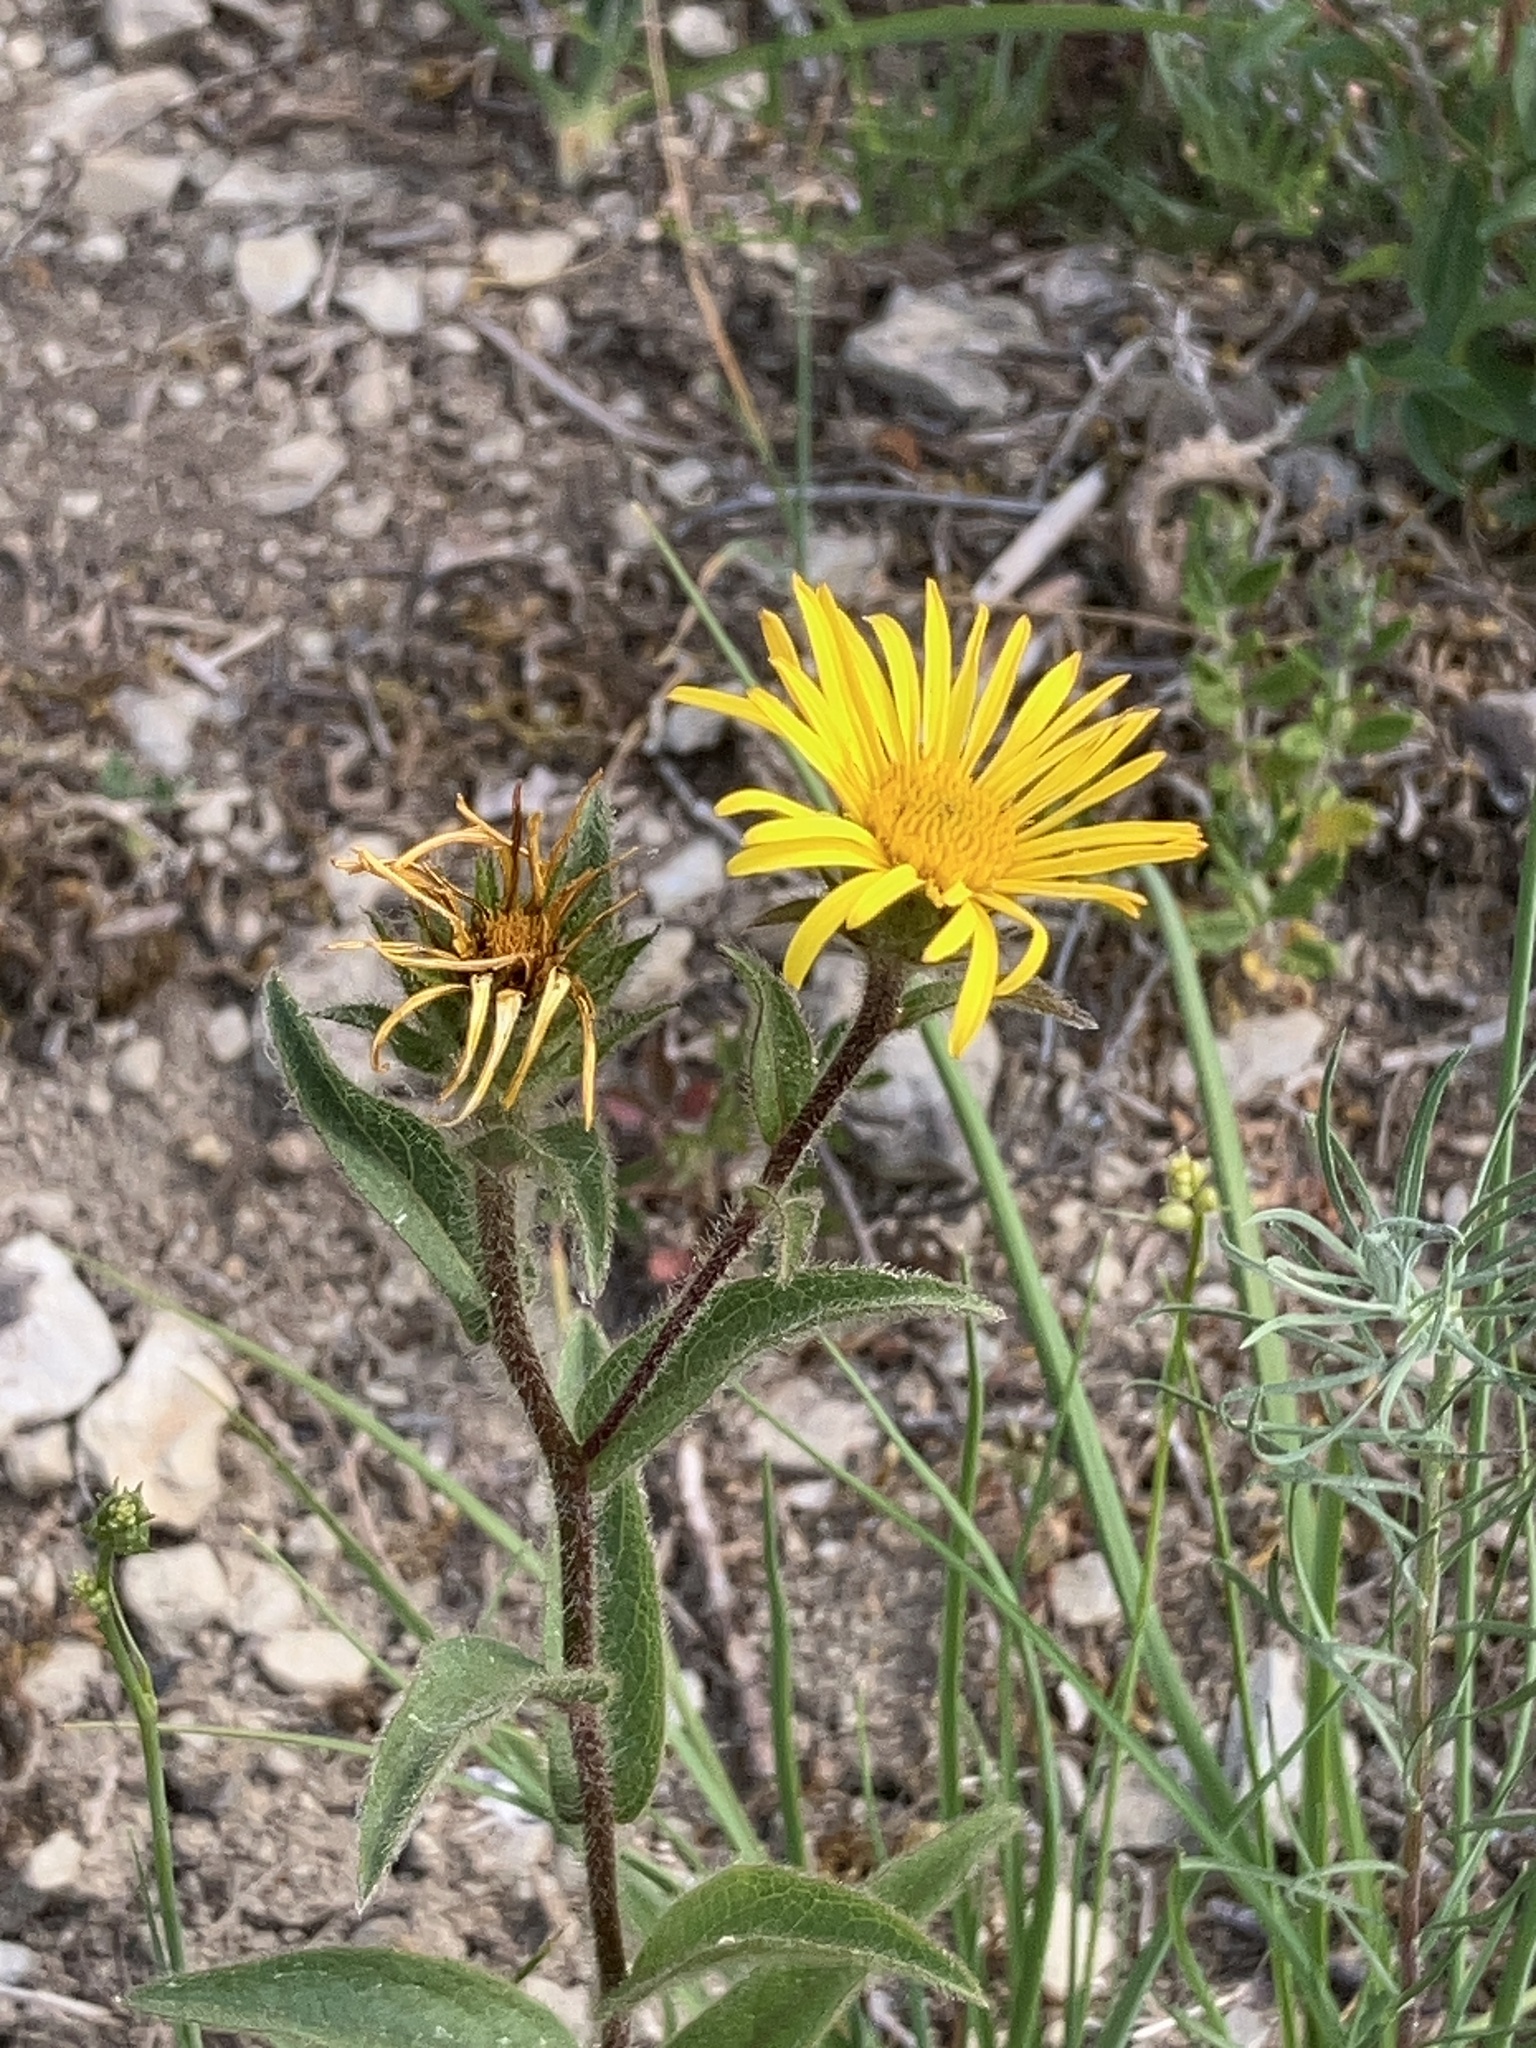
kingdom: Plantae
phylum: Tracheophyta
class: Magnoliopsida
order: Asterales
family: Asteraceae
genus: Pentanema
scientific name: Pentanema hirtum
